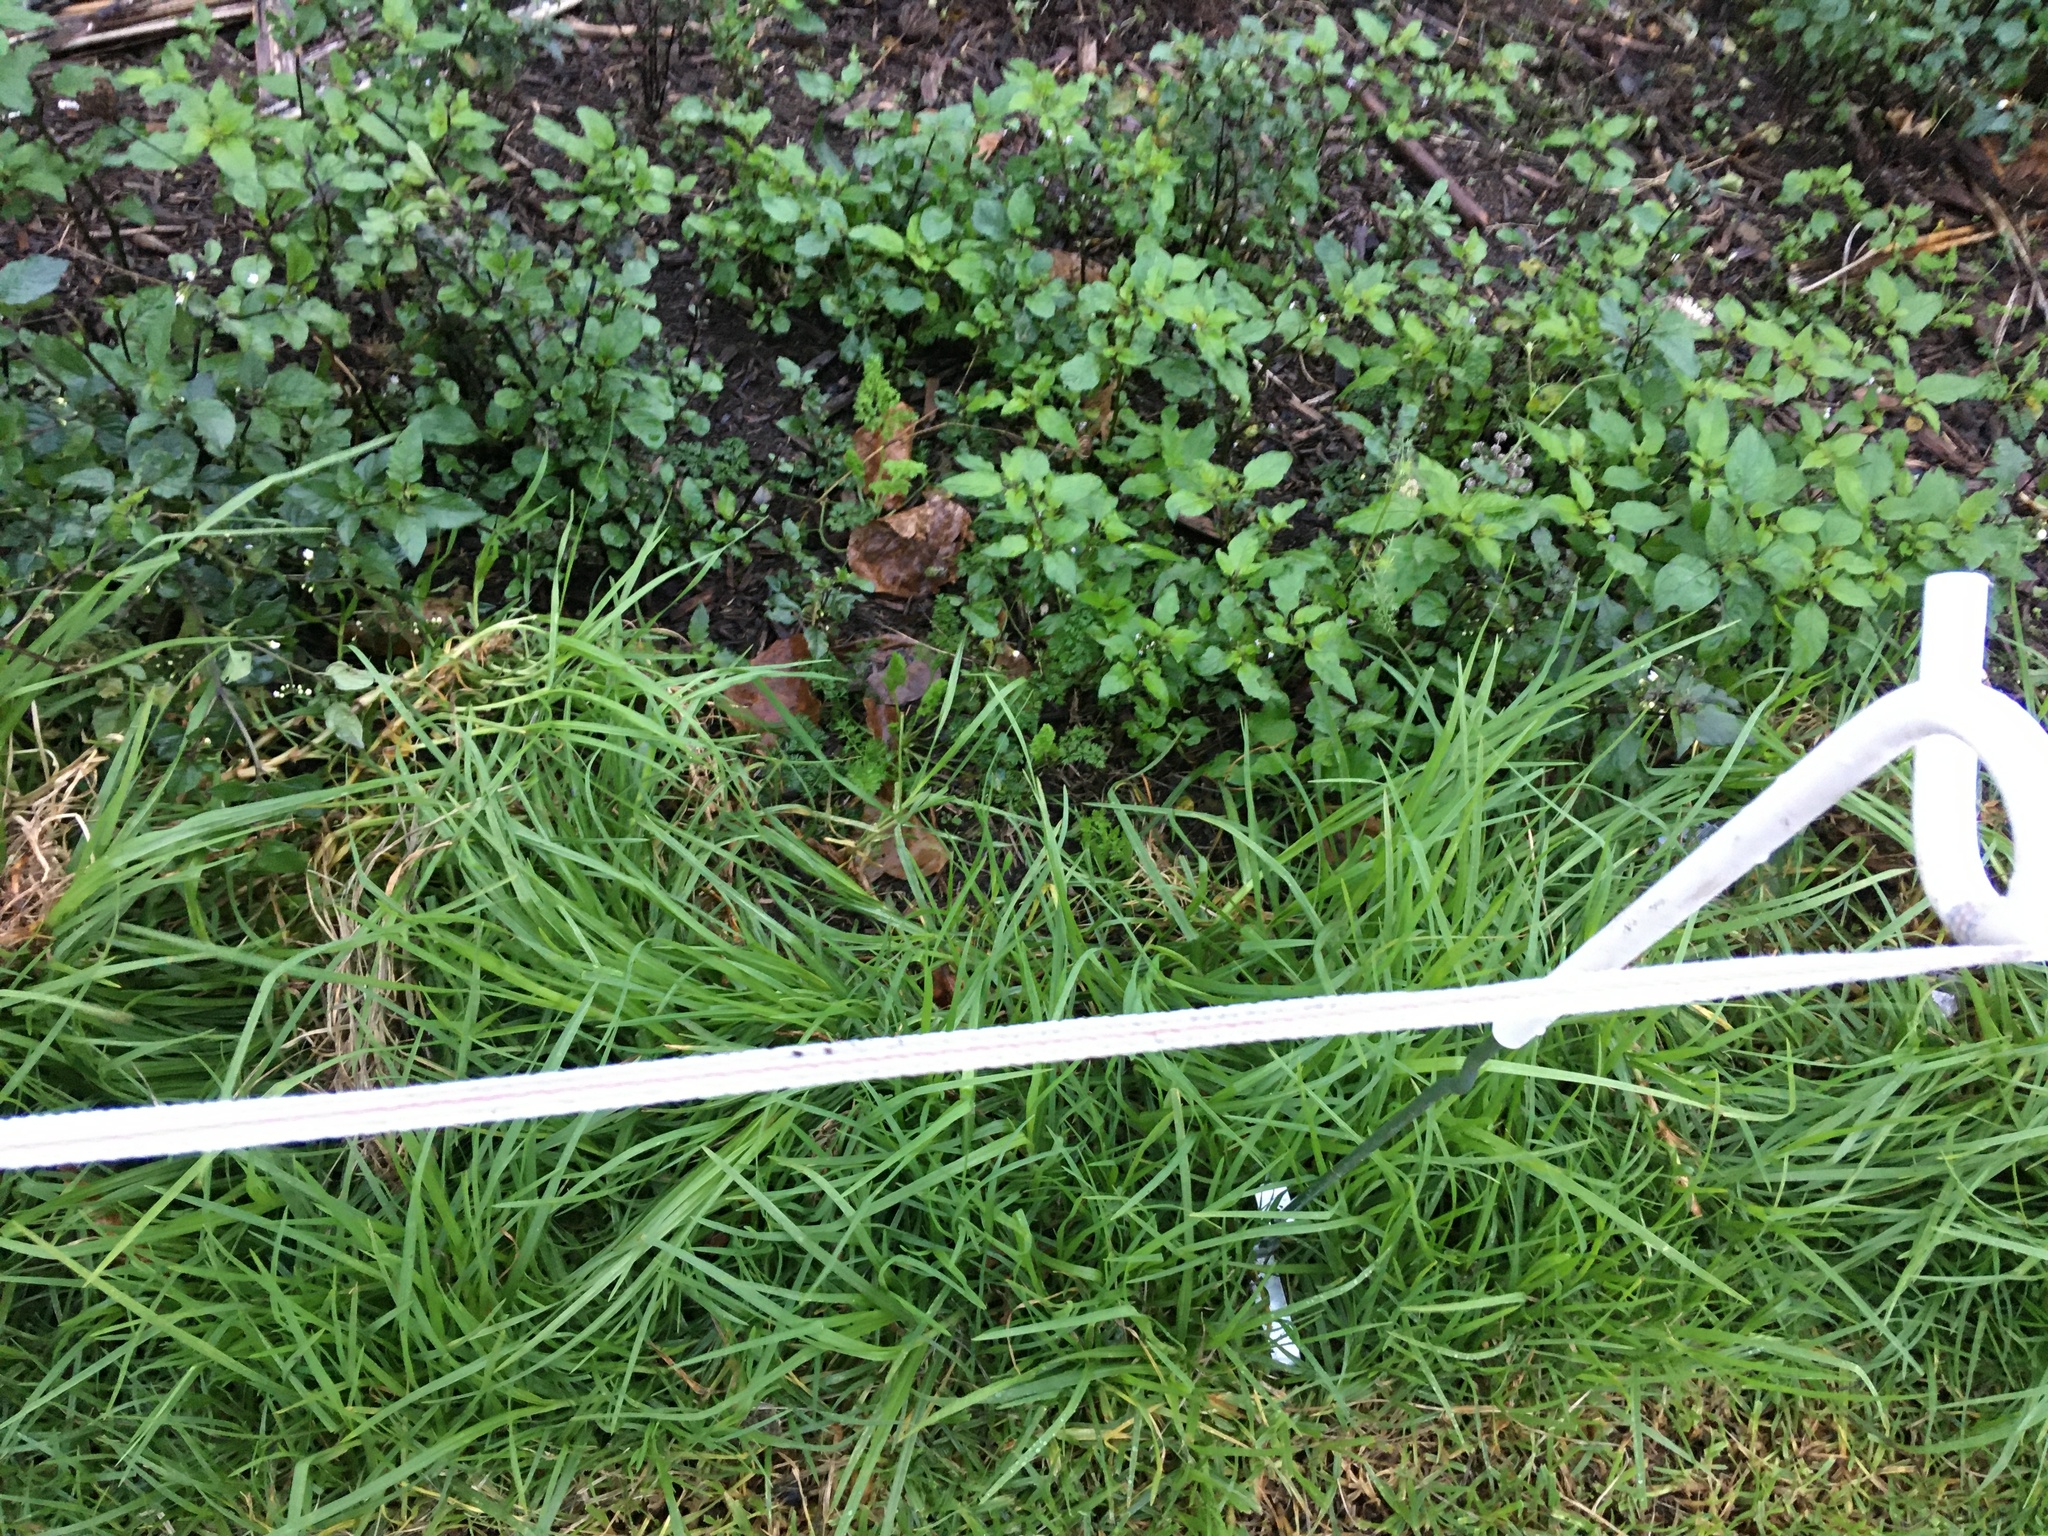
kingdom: Plantae
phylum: Tracheophyta
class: Magnoliopsida
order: Solanales
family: Solanaceae
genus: Solanum
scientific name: Solanum opacum
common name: Green-berry nightshade
